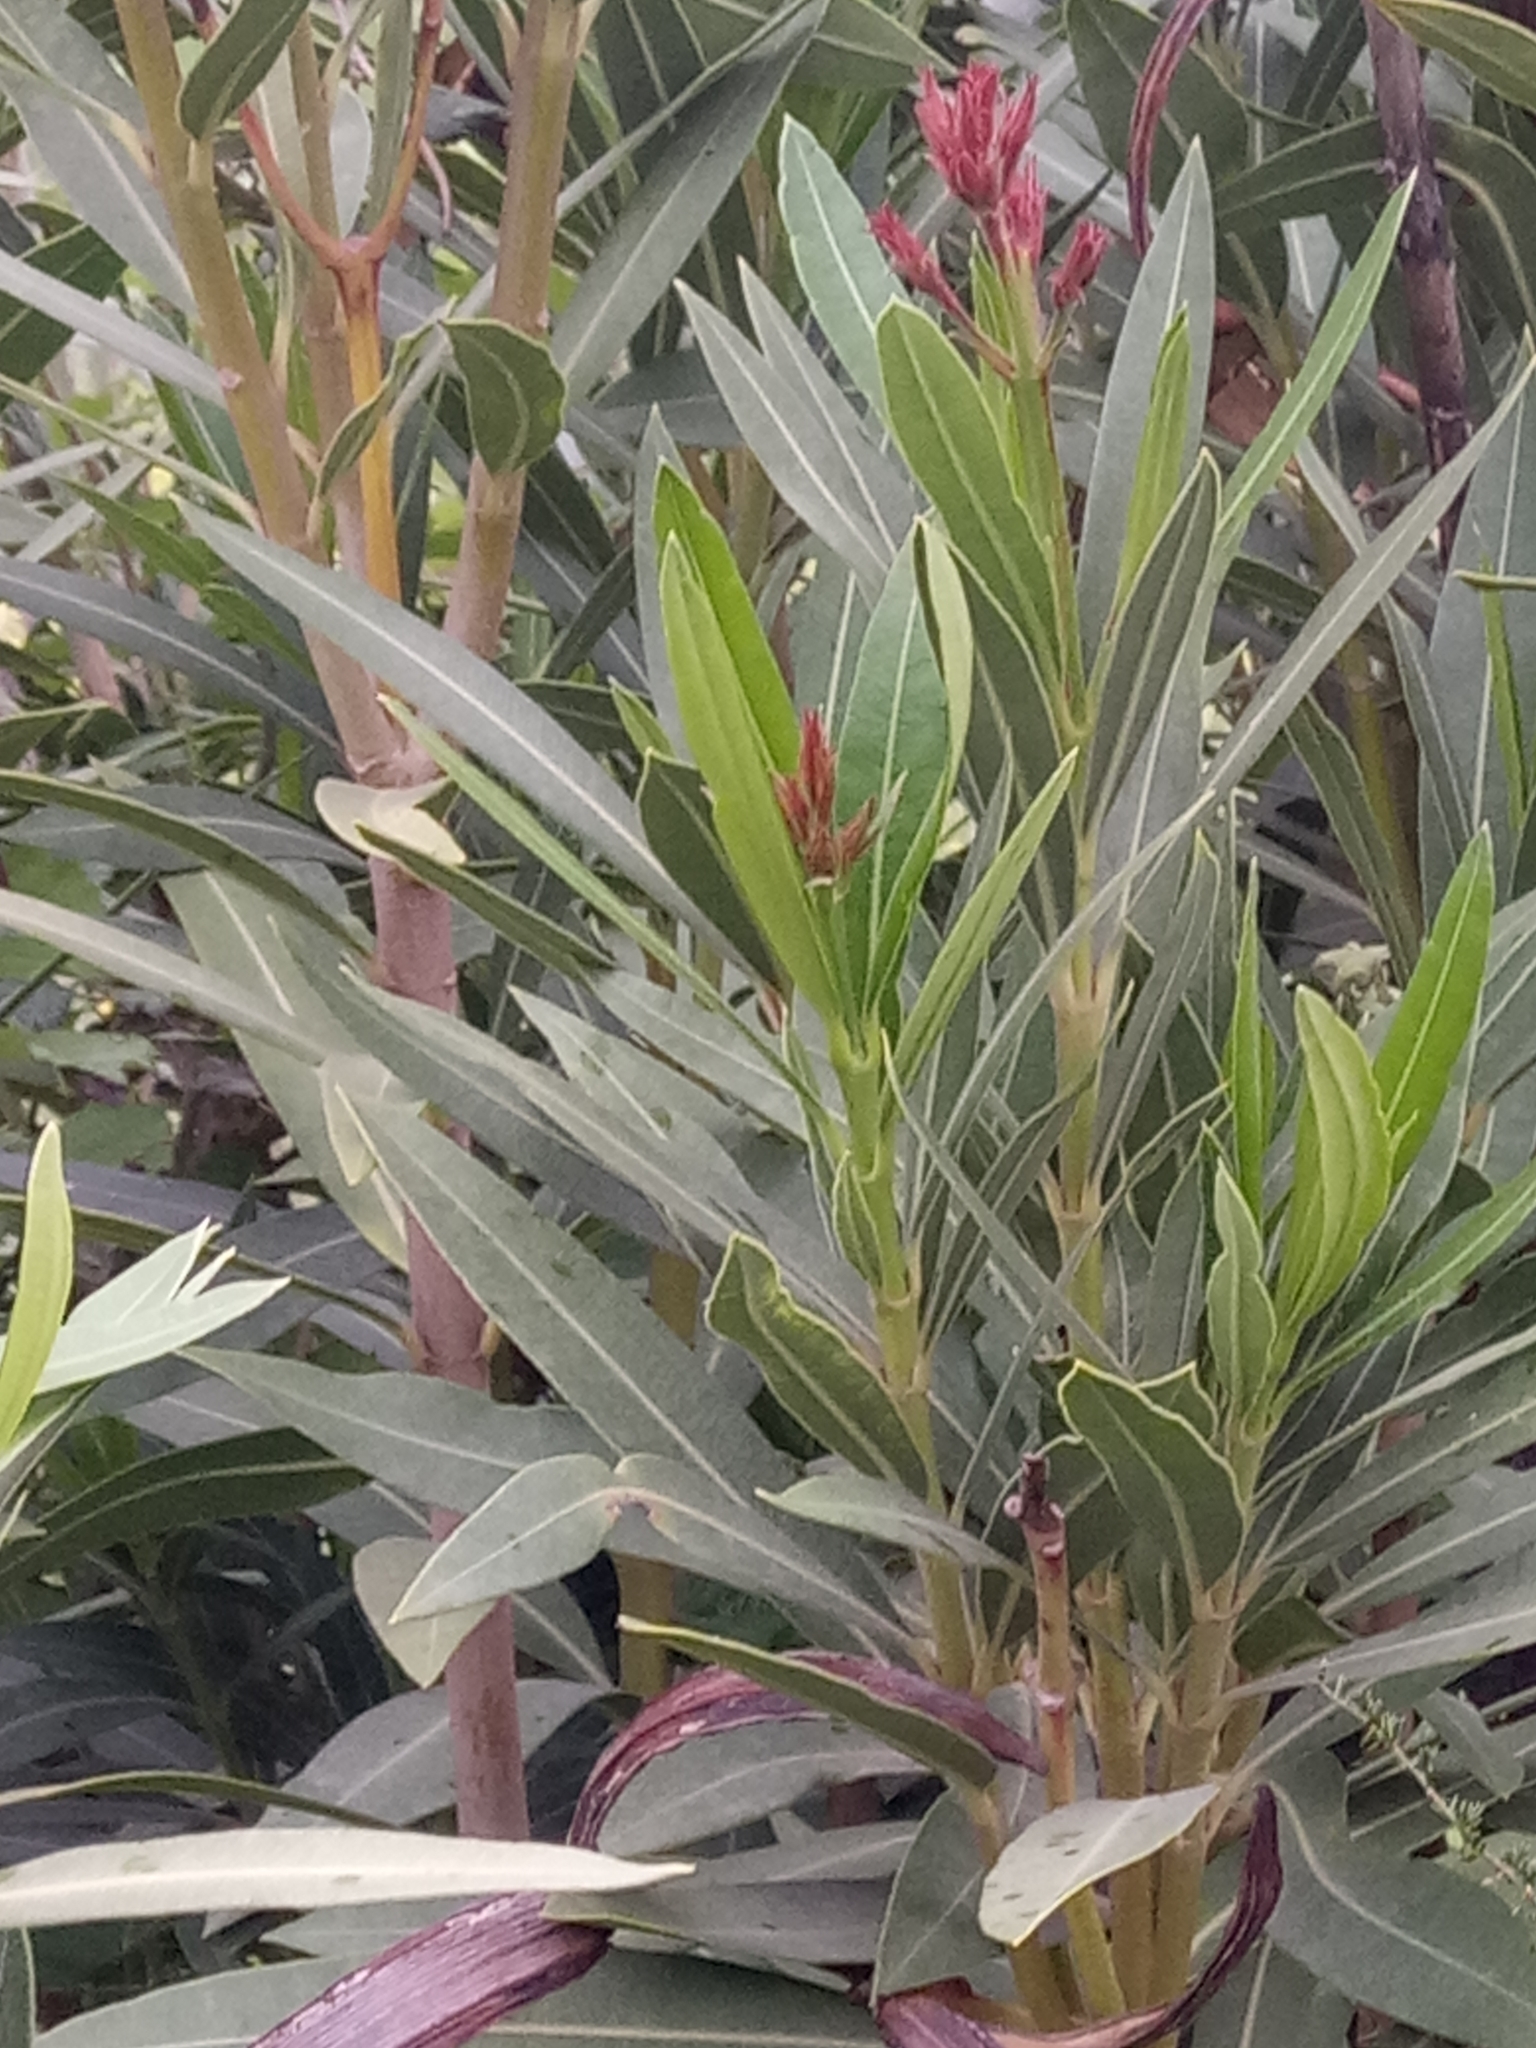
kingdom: Plantae
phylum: Tracheophyta
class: Magnoliopsida
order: Gentianales
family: Apocynaceae
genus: Nerium
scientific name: Nerium oleander
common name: Oleander
